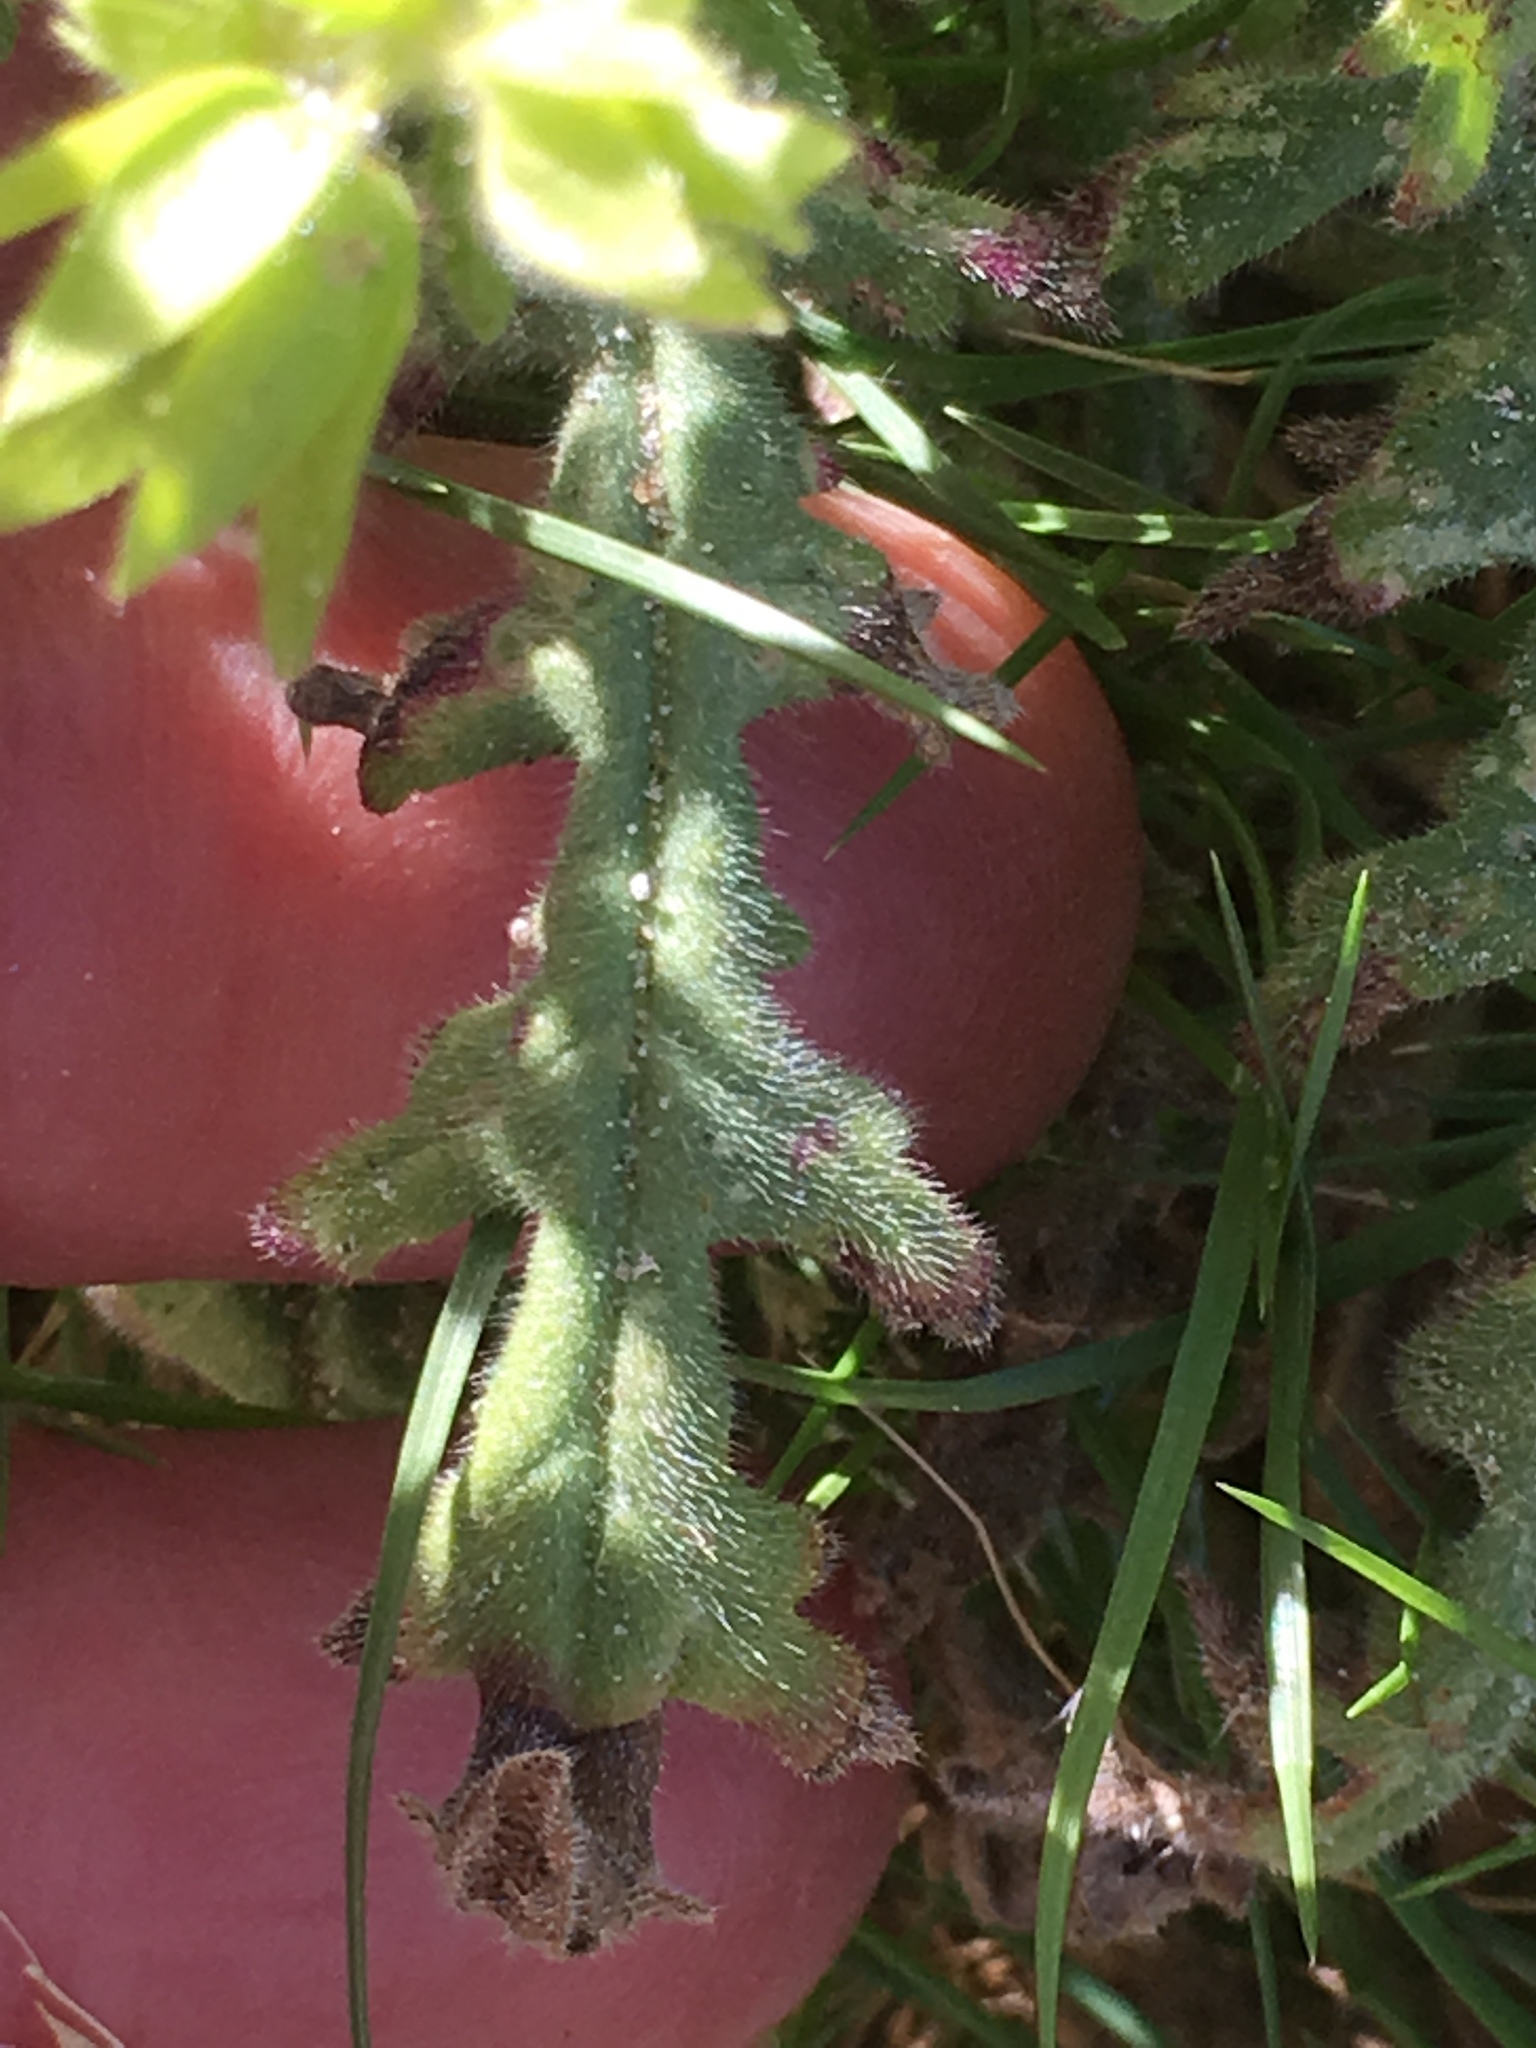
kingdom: Plantae
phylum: Tracheophyta
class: Magnoliopsida
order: Boraginales
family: Hydrophyllaceae
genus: Emmenanthe
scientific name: Emmenanthe penduliflora
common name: Whispering-bells
